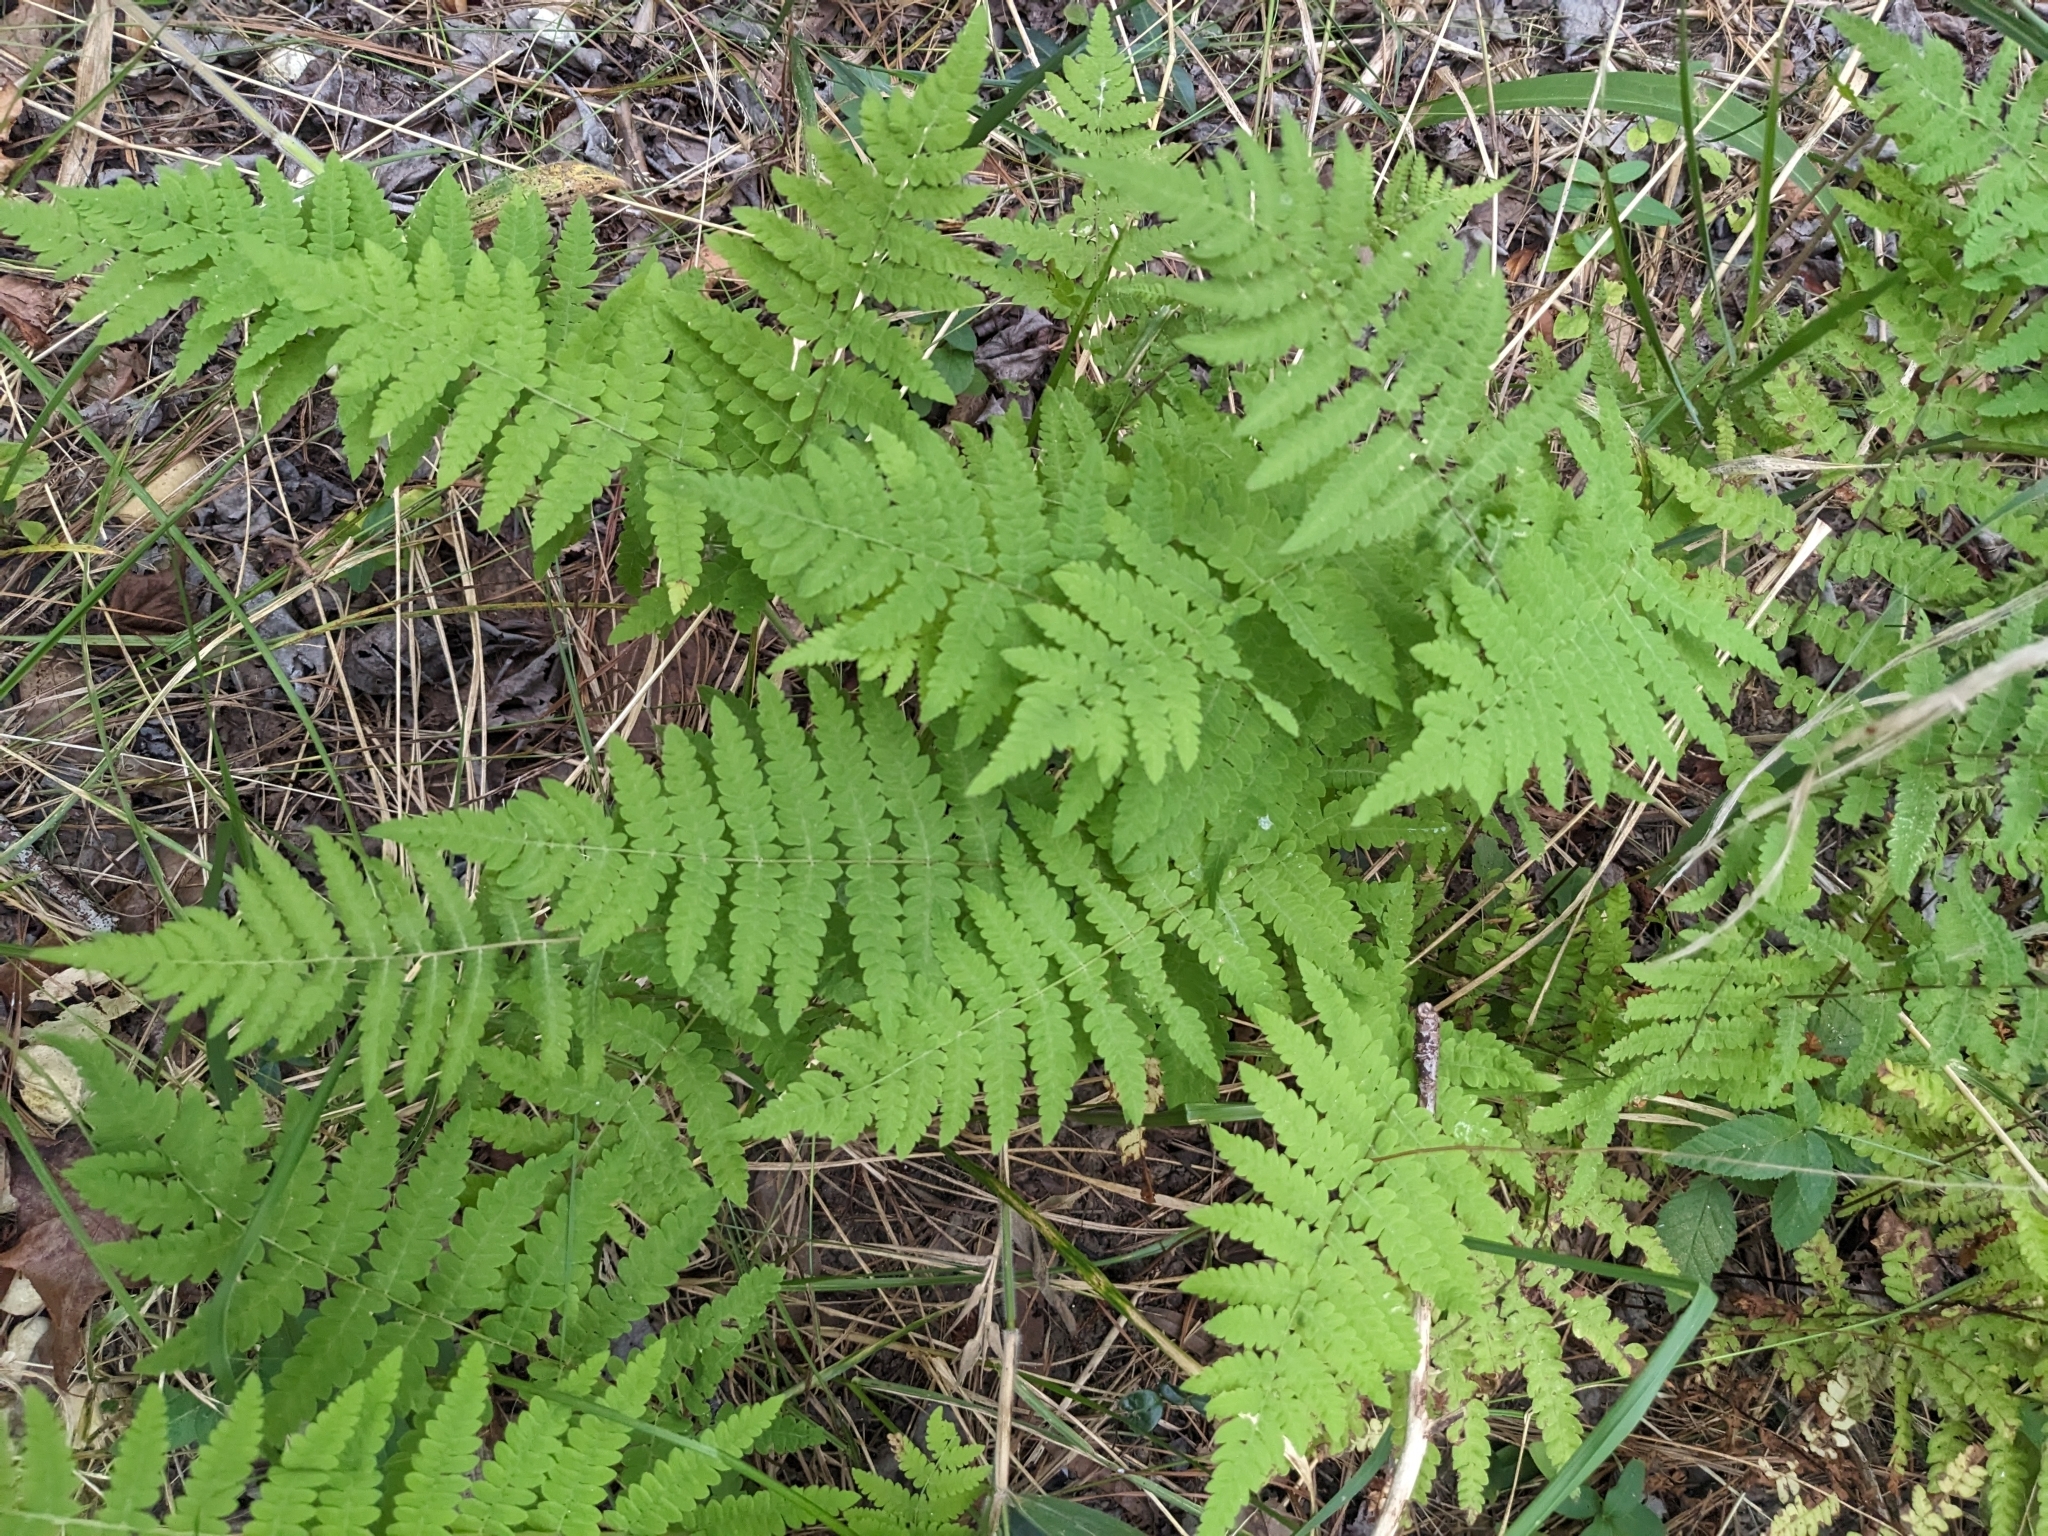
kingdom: Plantae
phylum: Tracheophyta
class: Polypodiopsida
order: Polypodiales
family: Thelypteridaceae
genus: Thelypteris
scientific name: Thelypteris palustris
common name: Marsh fern
